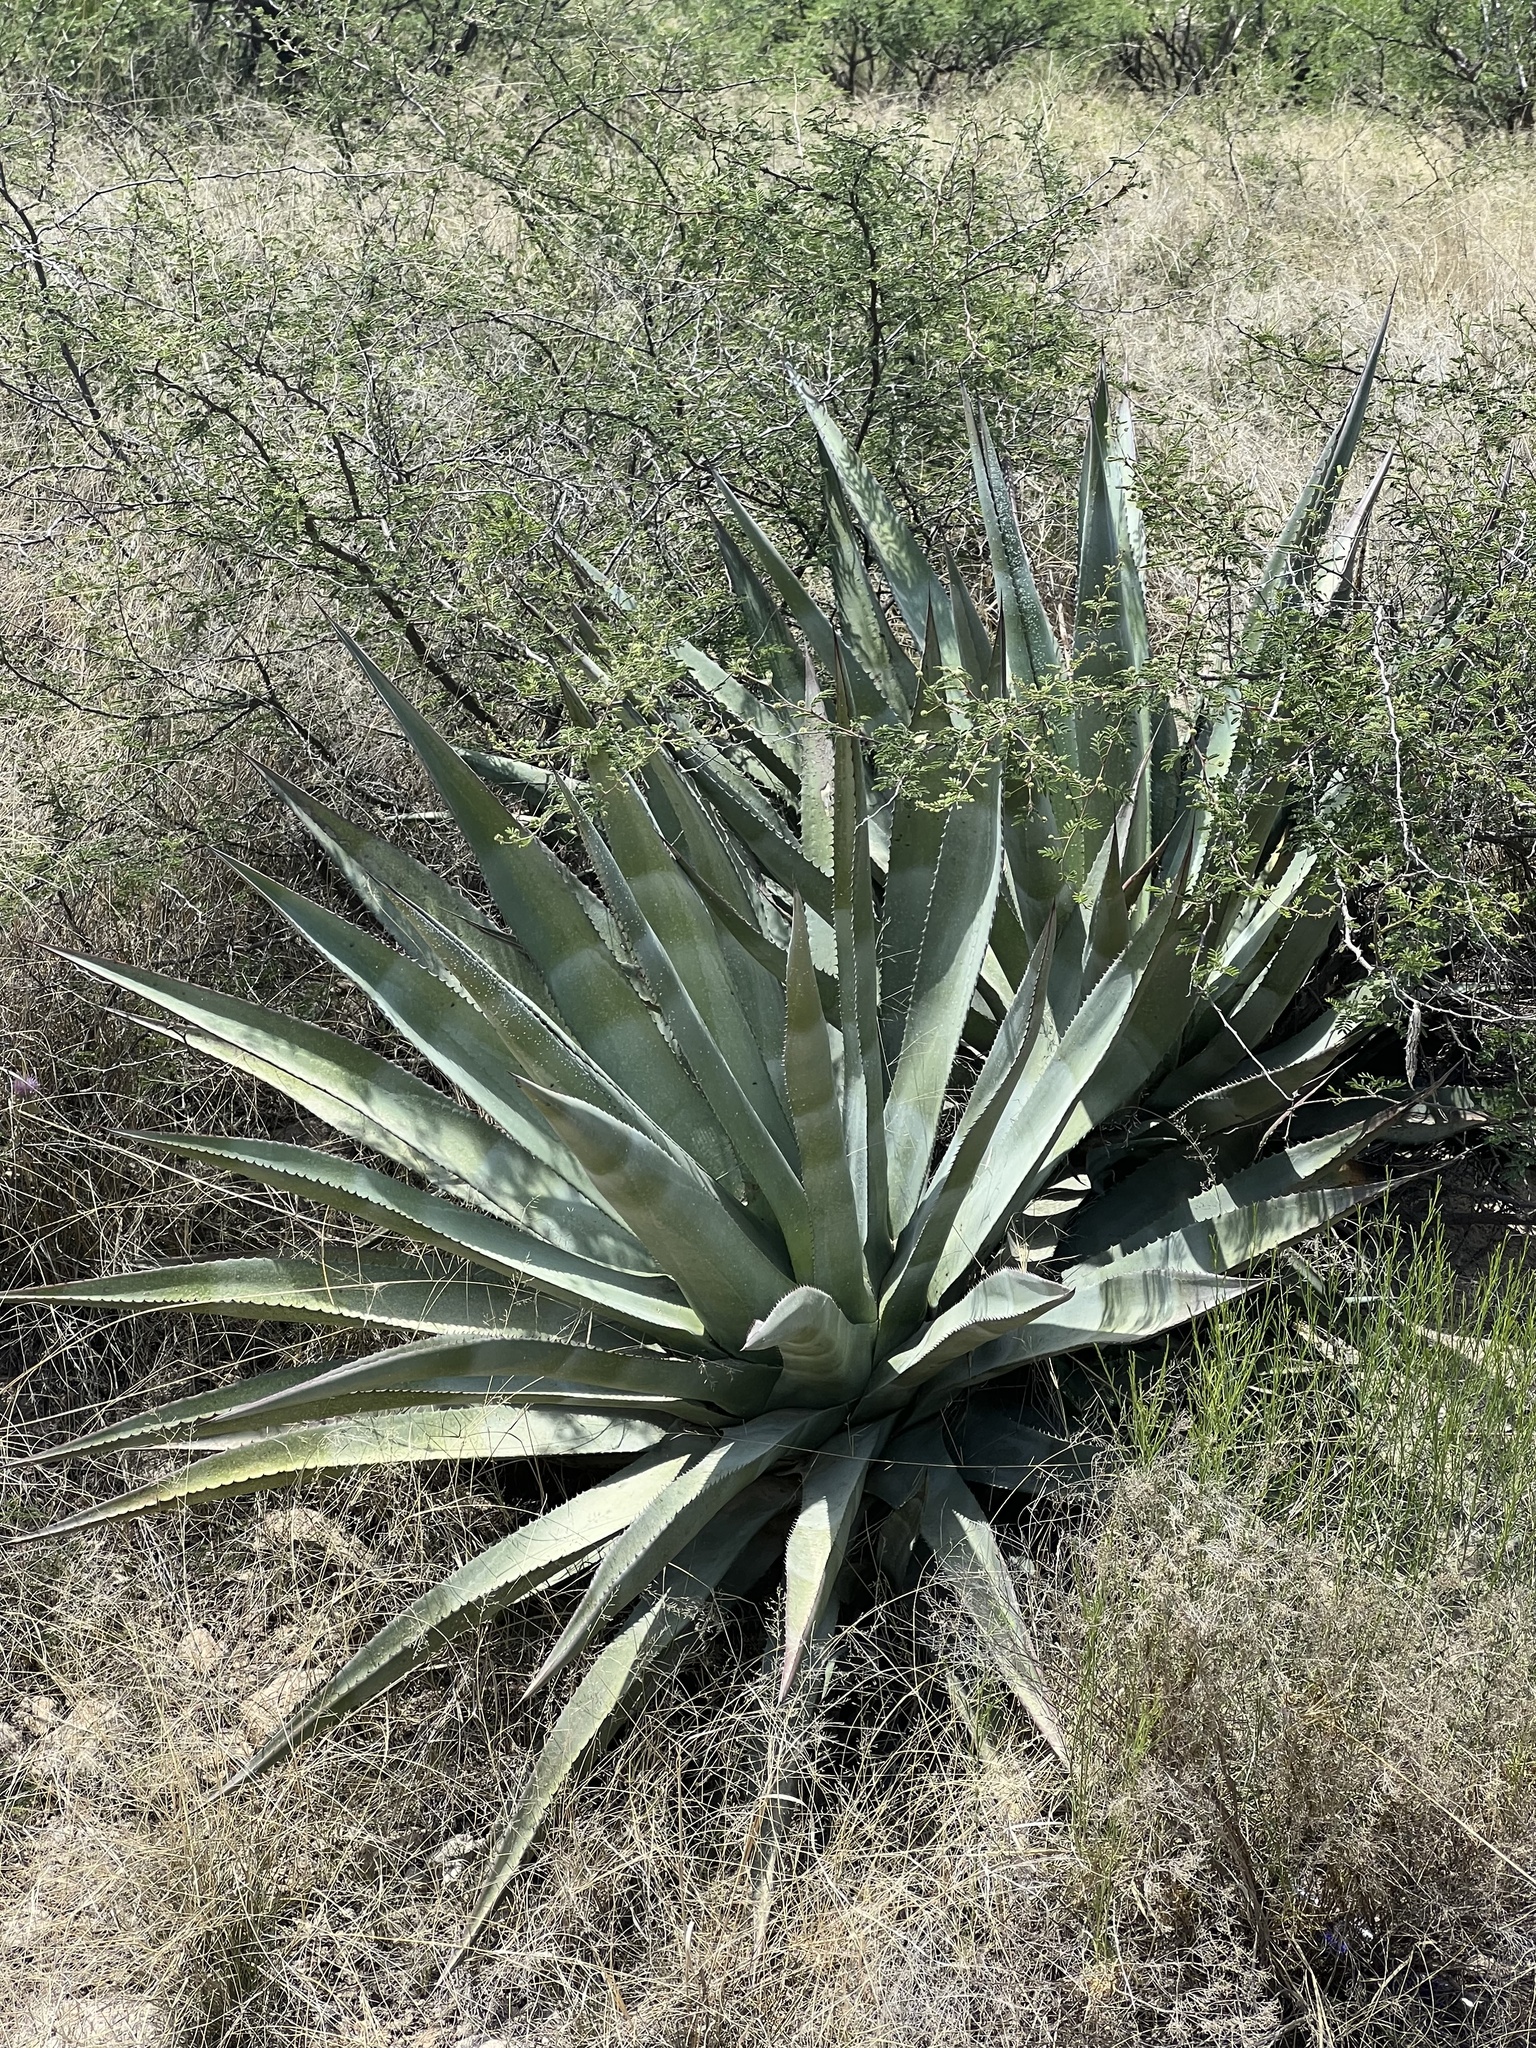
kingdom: Plantae
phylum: Tracheophyta
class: Liliopsida
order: Asparagales
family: Asparagaceae
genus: Agave
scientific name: Agave palmeri
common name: Palmer agave
